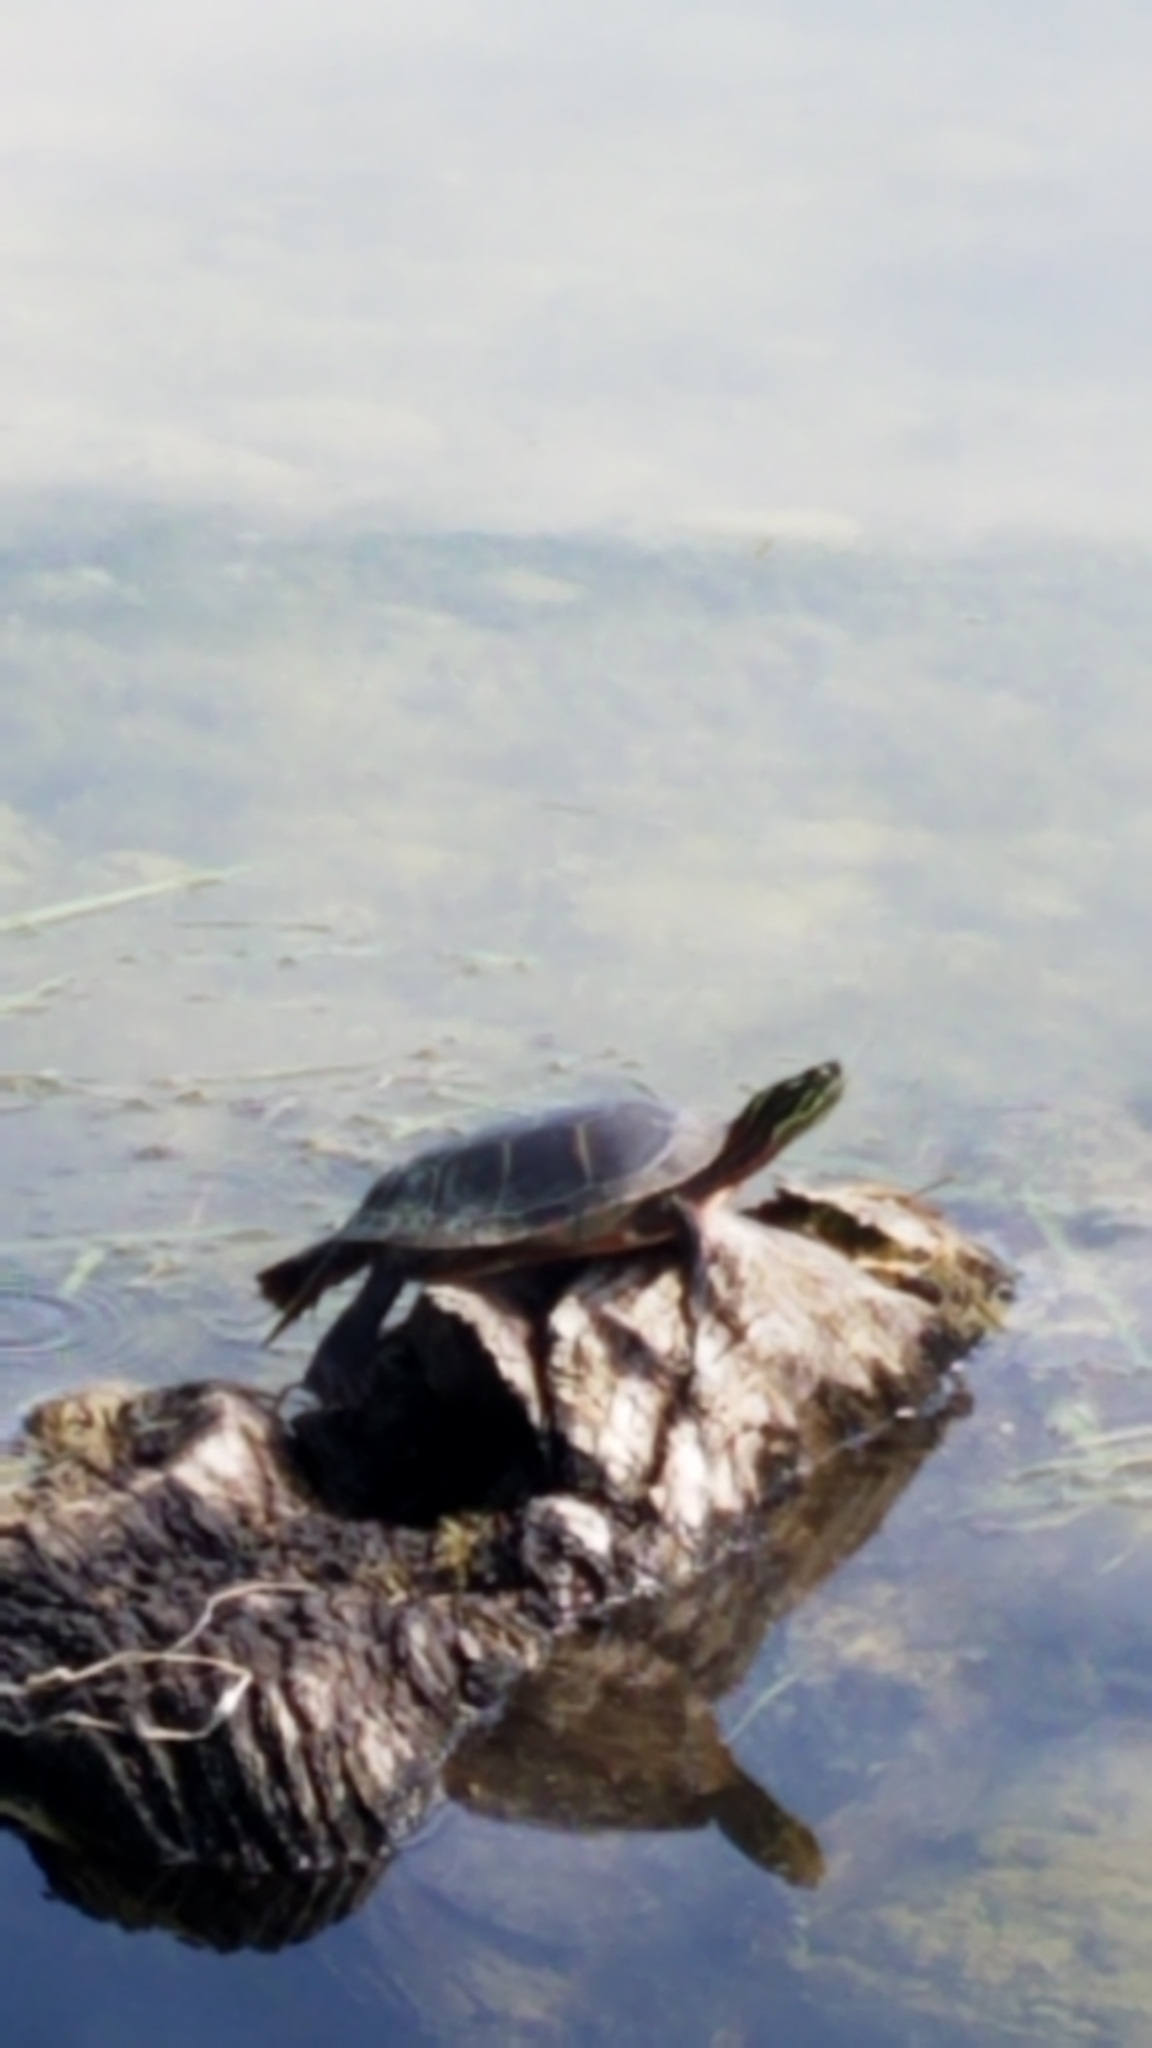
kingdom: Animalia
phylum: Chordata
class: Testudines
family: Emydidae
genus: Chrysemys
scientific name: Chrysemys picta
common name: Painted turtle
